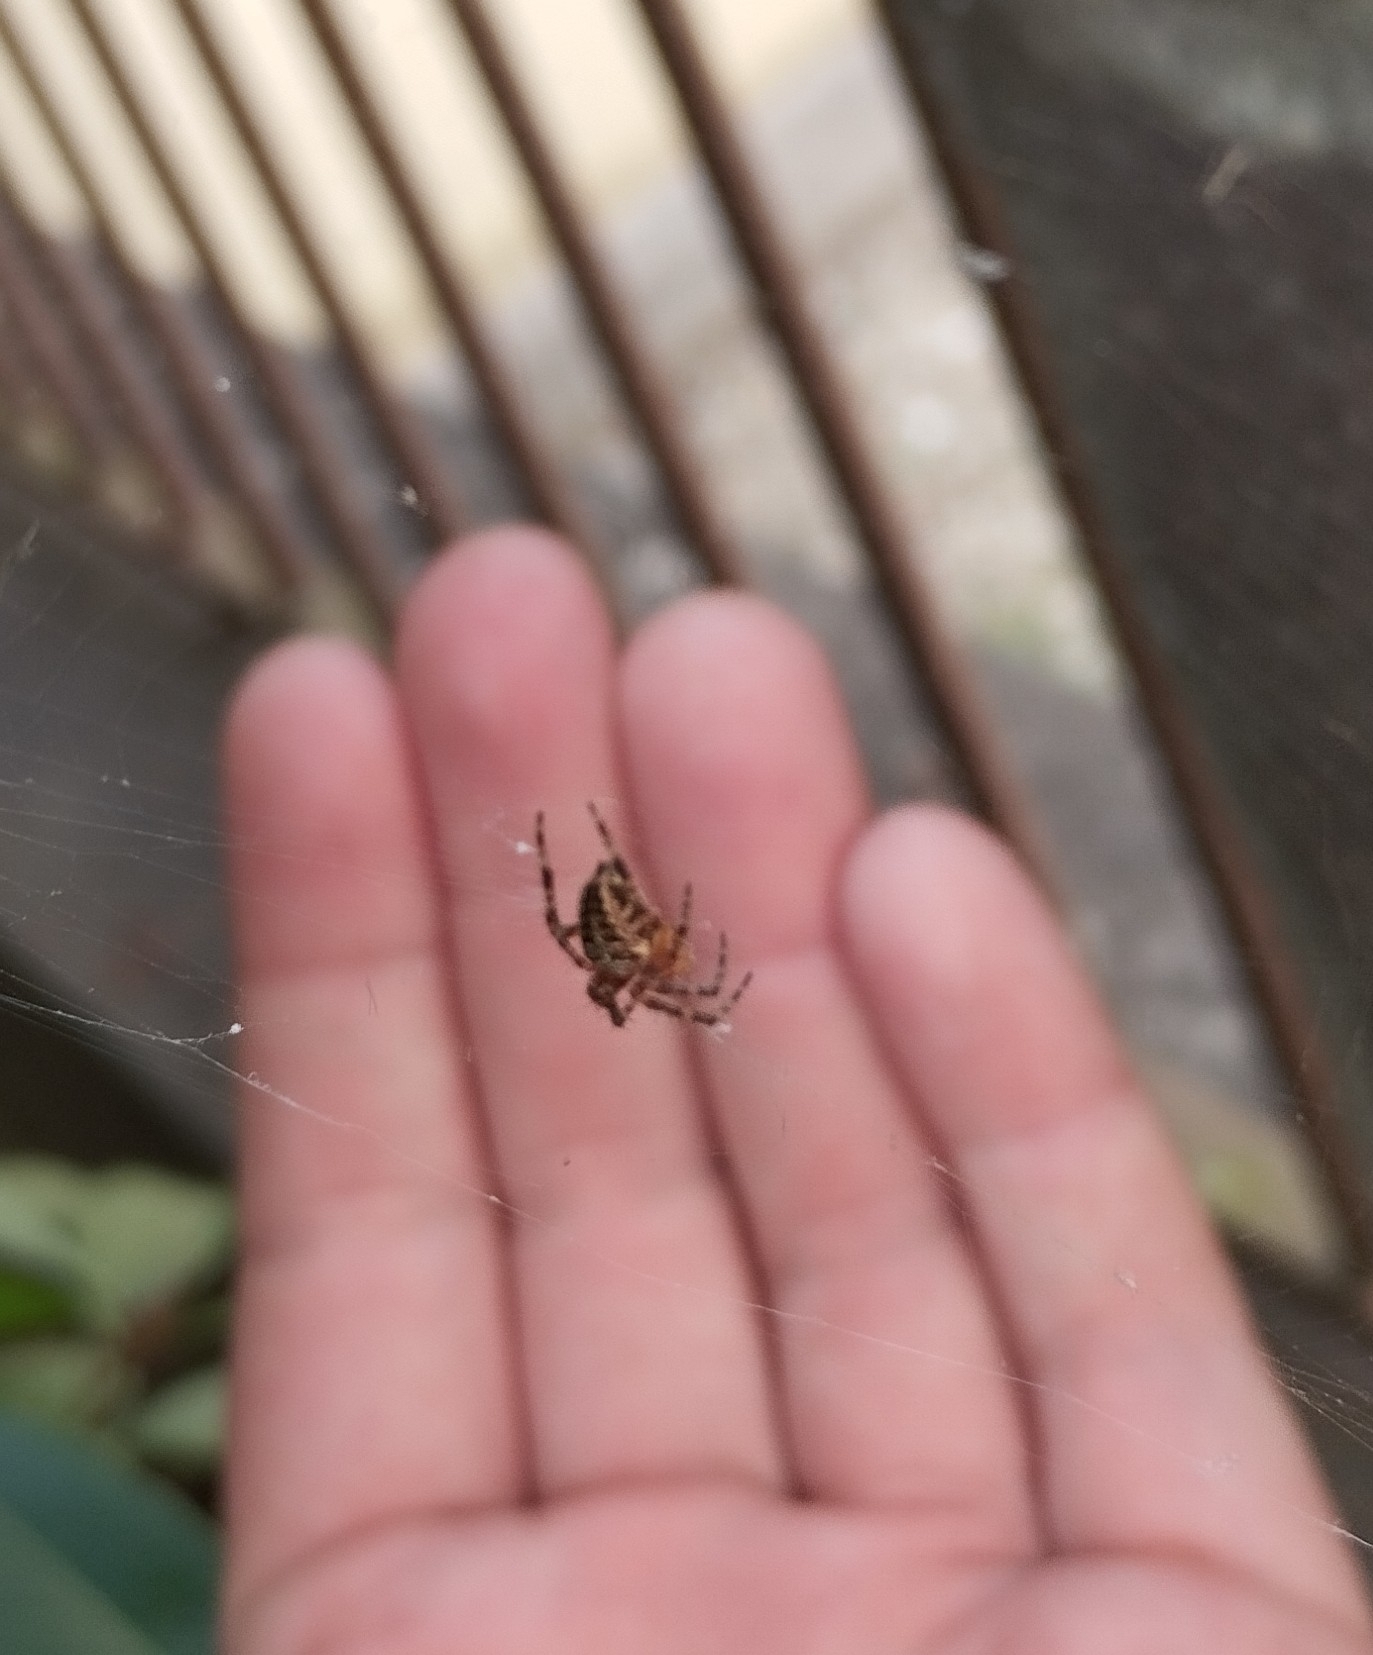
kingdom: Animalia
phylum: Arthropoda
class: Arachnida
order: Araneae
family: Araneidae
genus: Araneus
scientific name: Araneus diadematus
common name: Cross orbweaver
